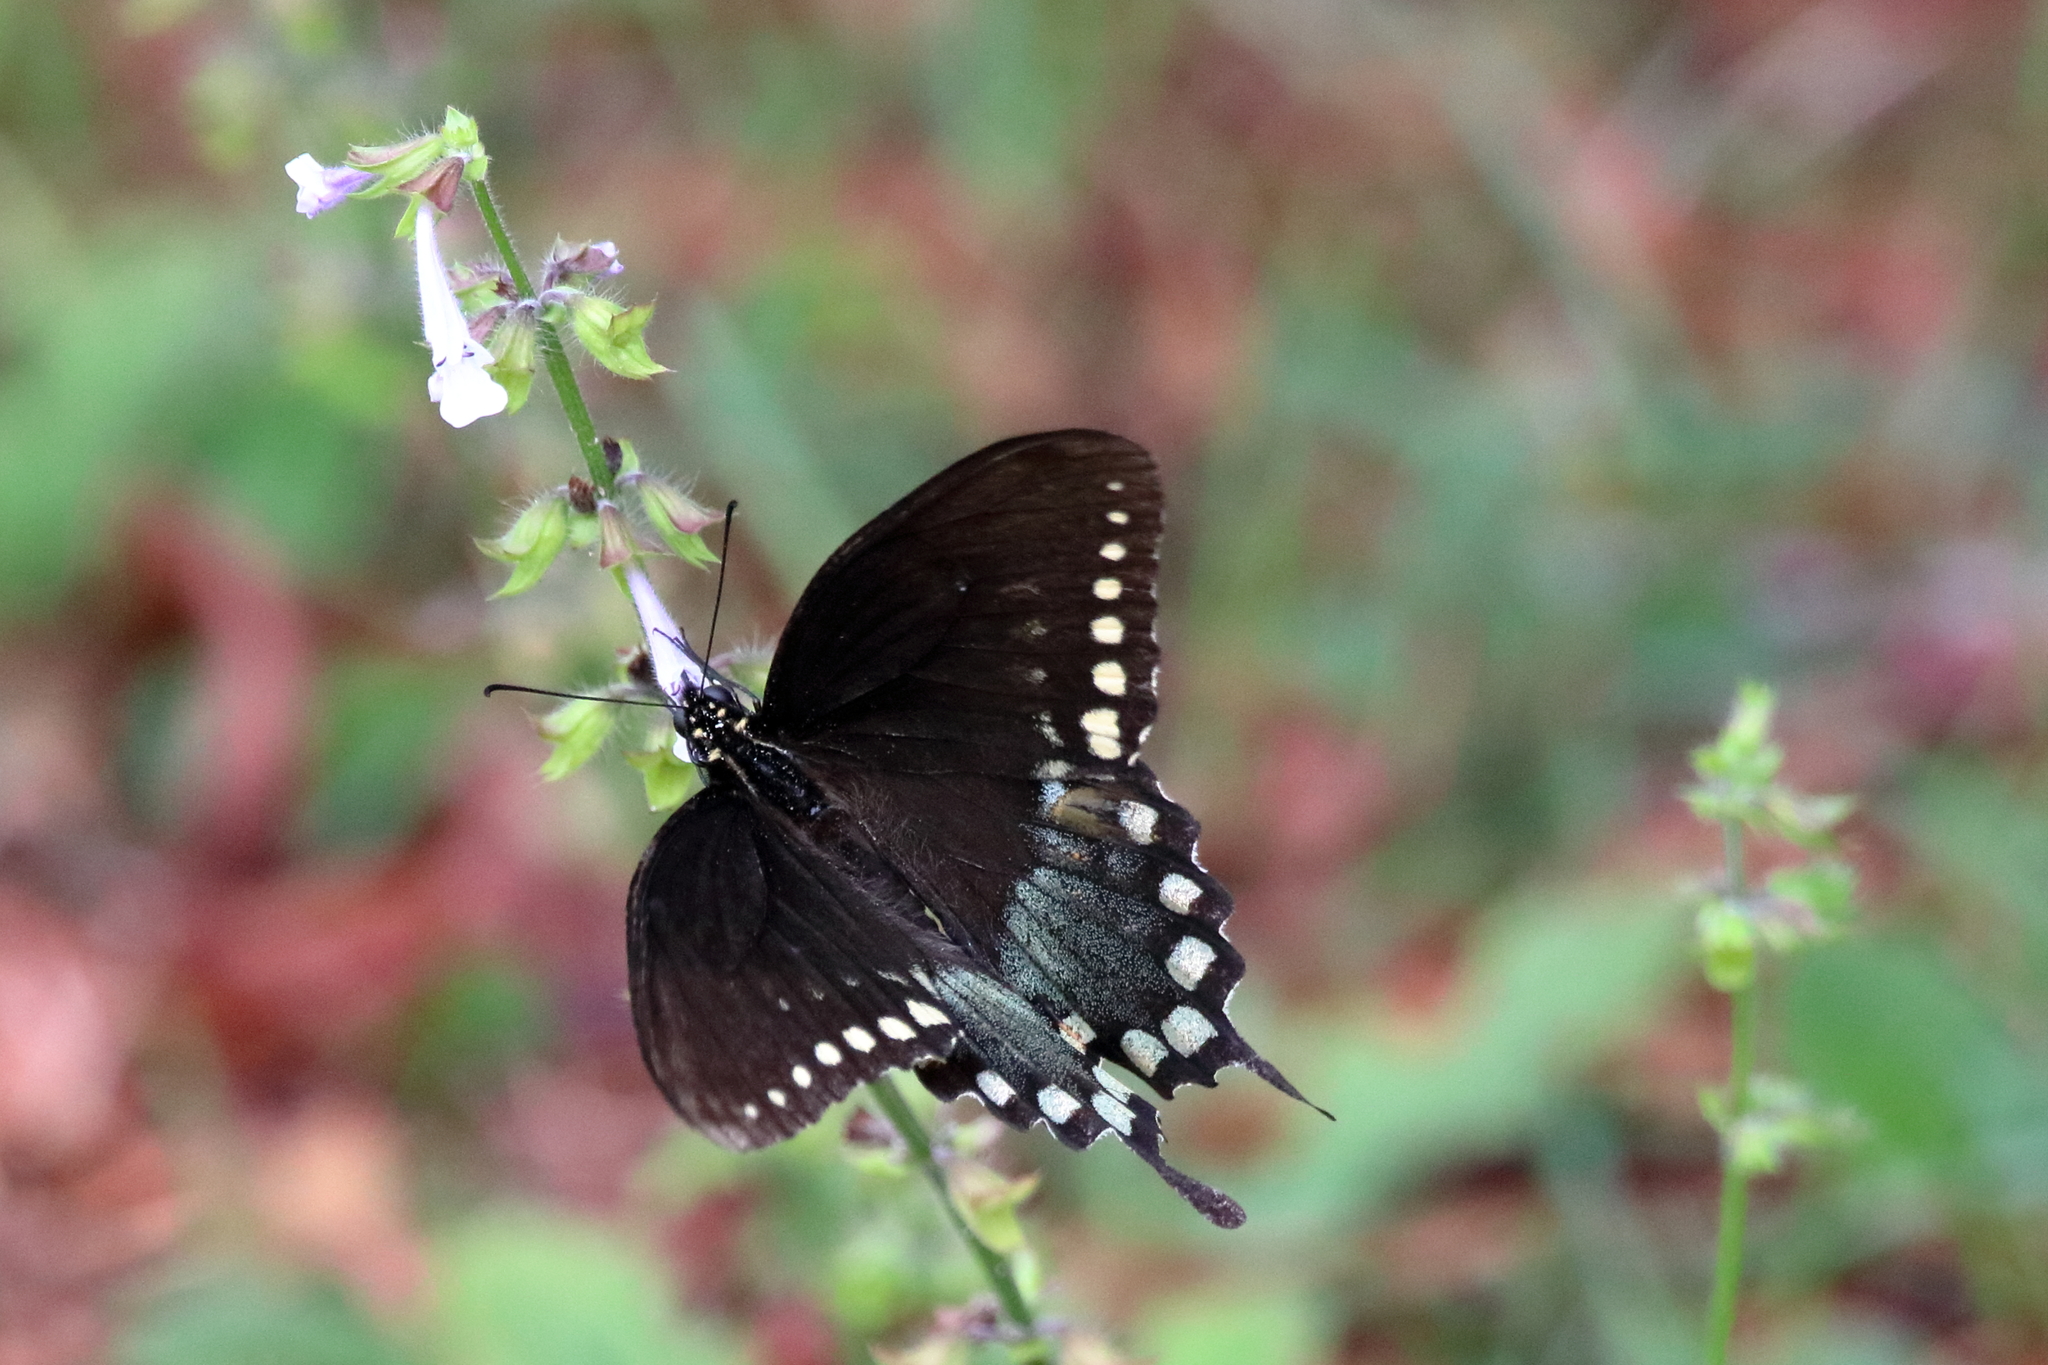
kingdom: Animalia
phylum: Arthropoda
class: Insecta
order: Lepidoptera
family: Papilionidae
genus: Papilio
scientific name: Papilio troilus
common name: Spicebush swallowtail
